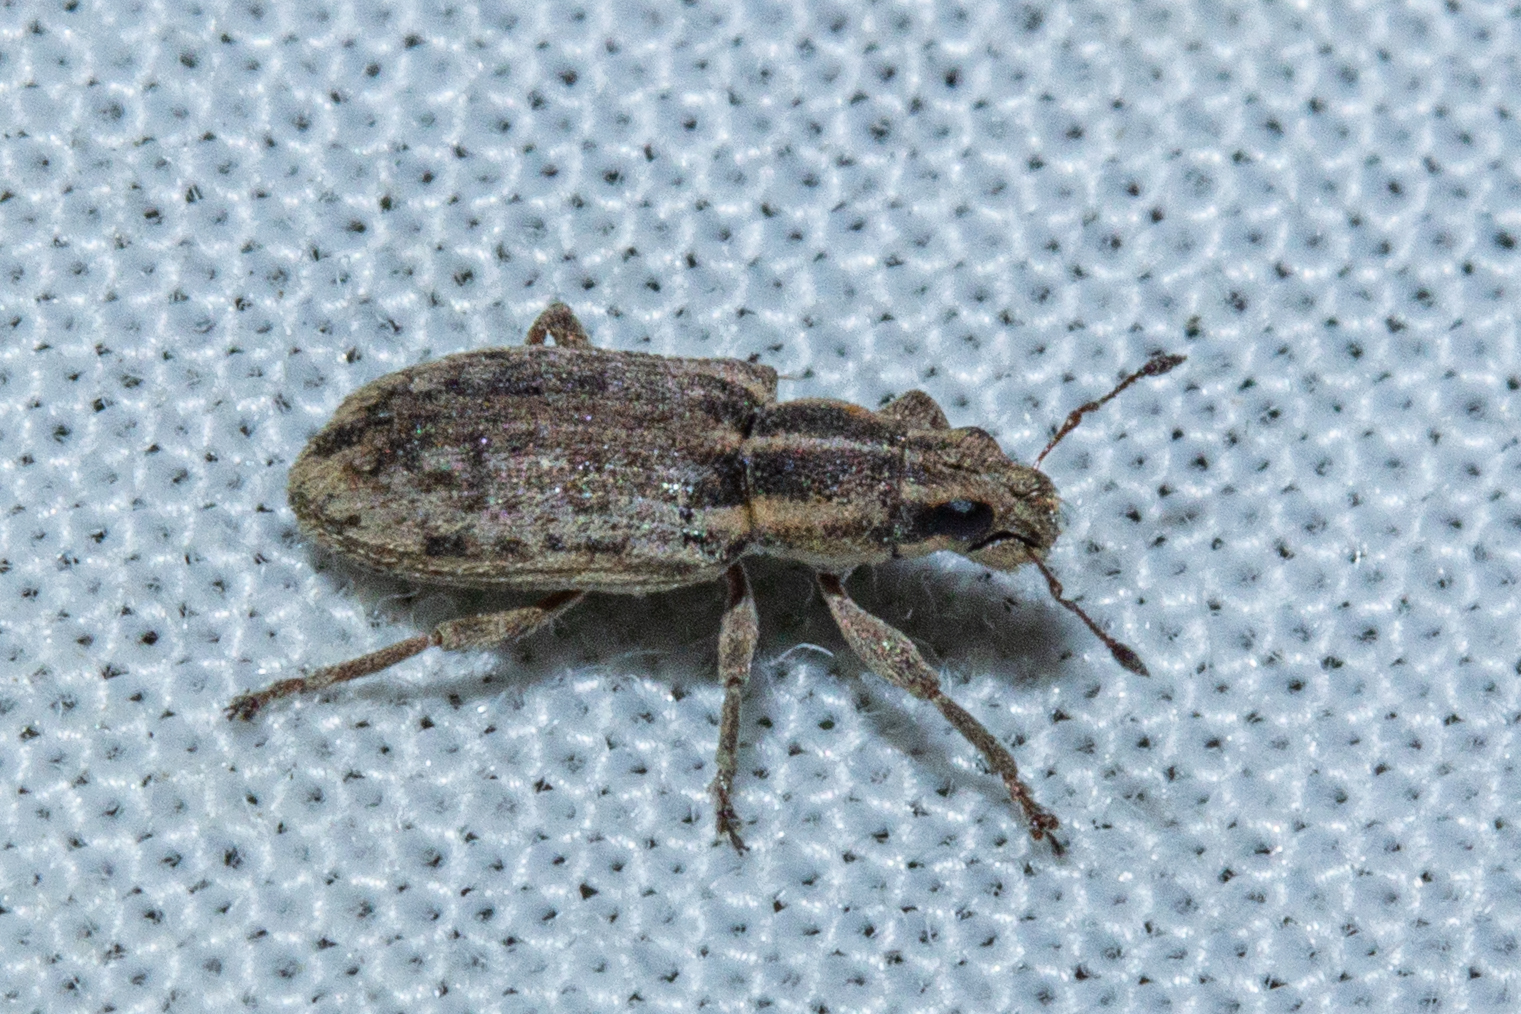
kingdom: Animalia
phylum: Arthropoda
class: Insecta
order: Coleoptera
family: Curculionidae
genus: Sitona
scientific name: Sitona discoideus
